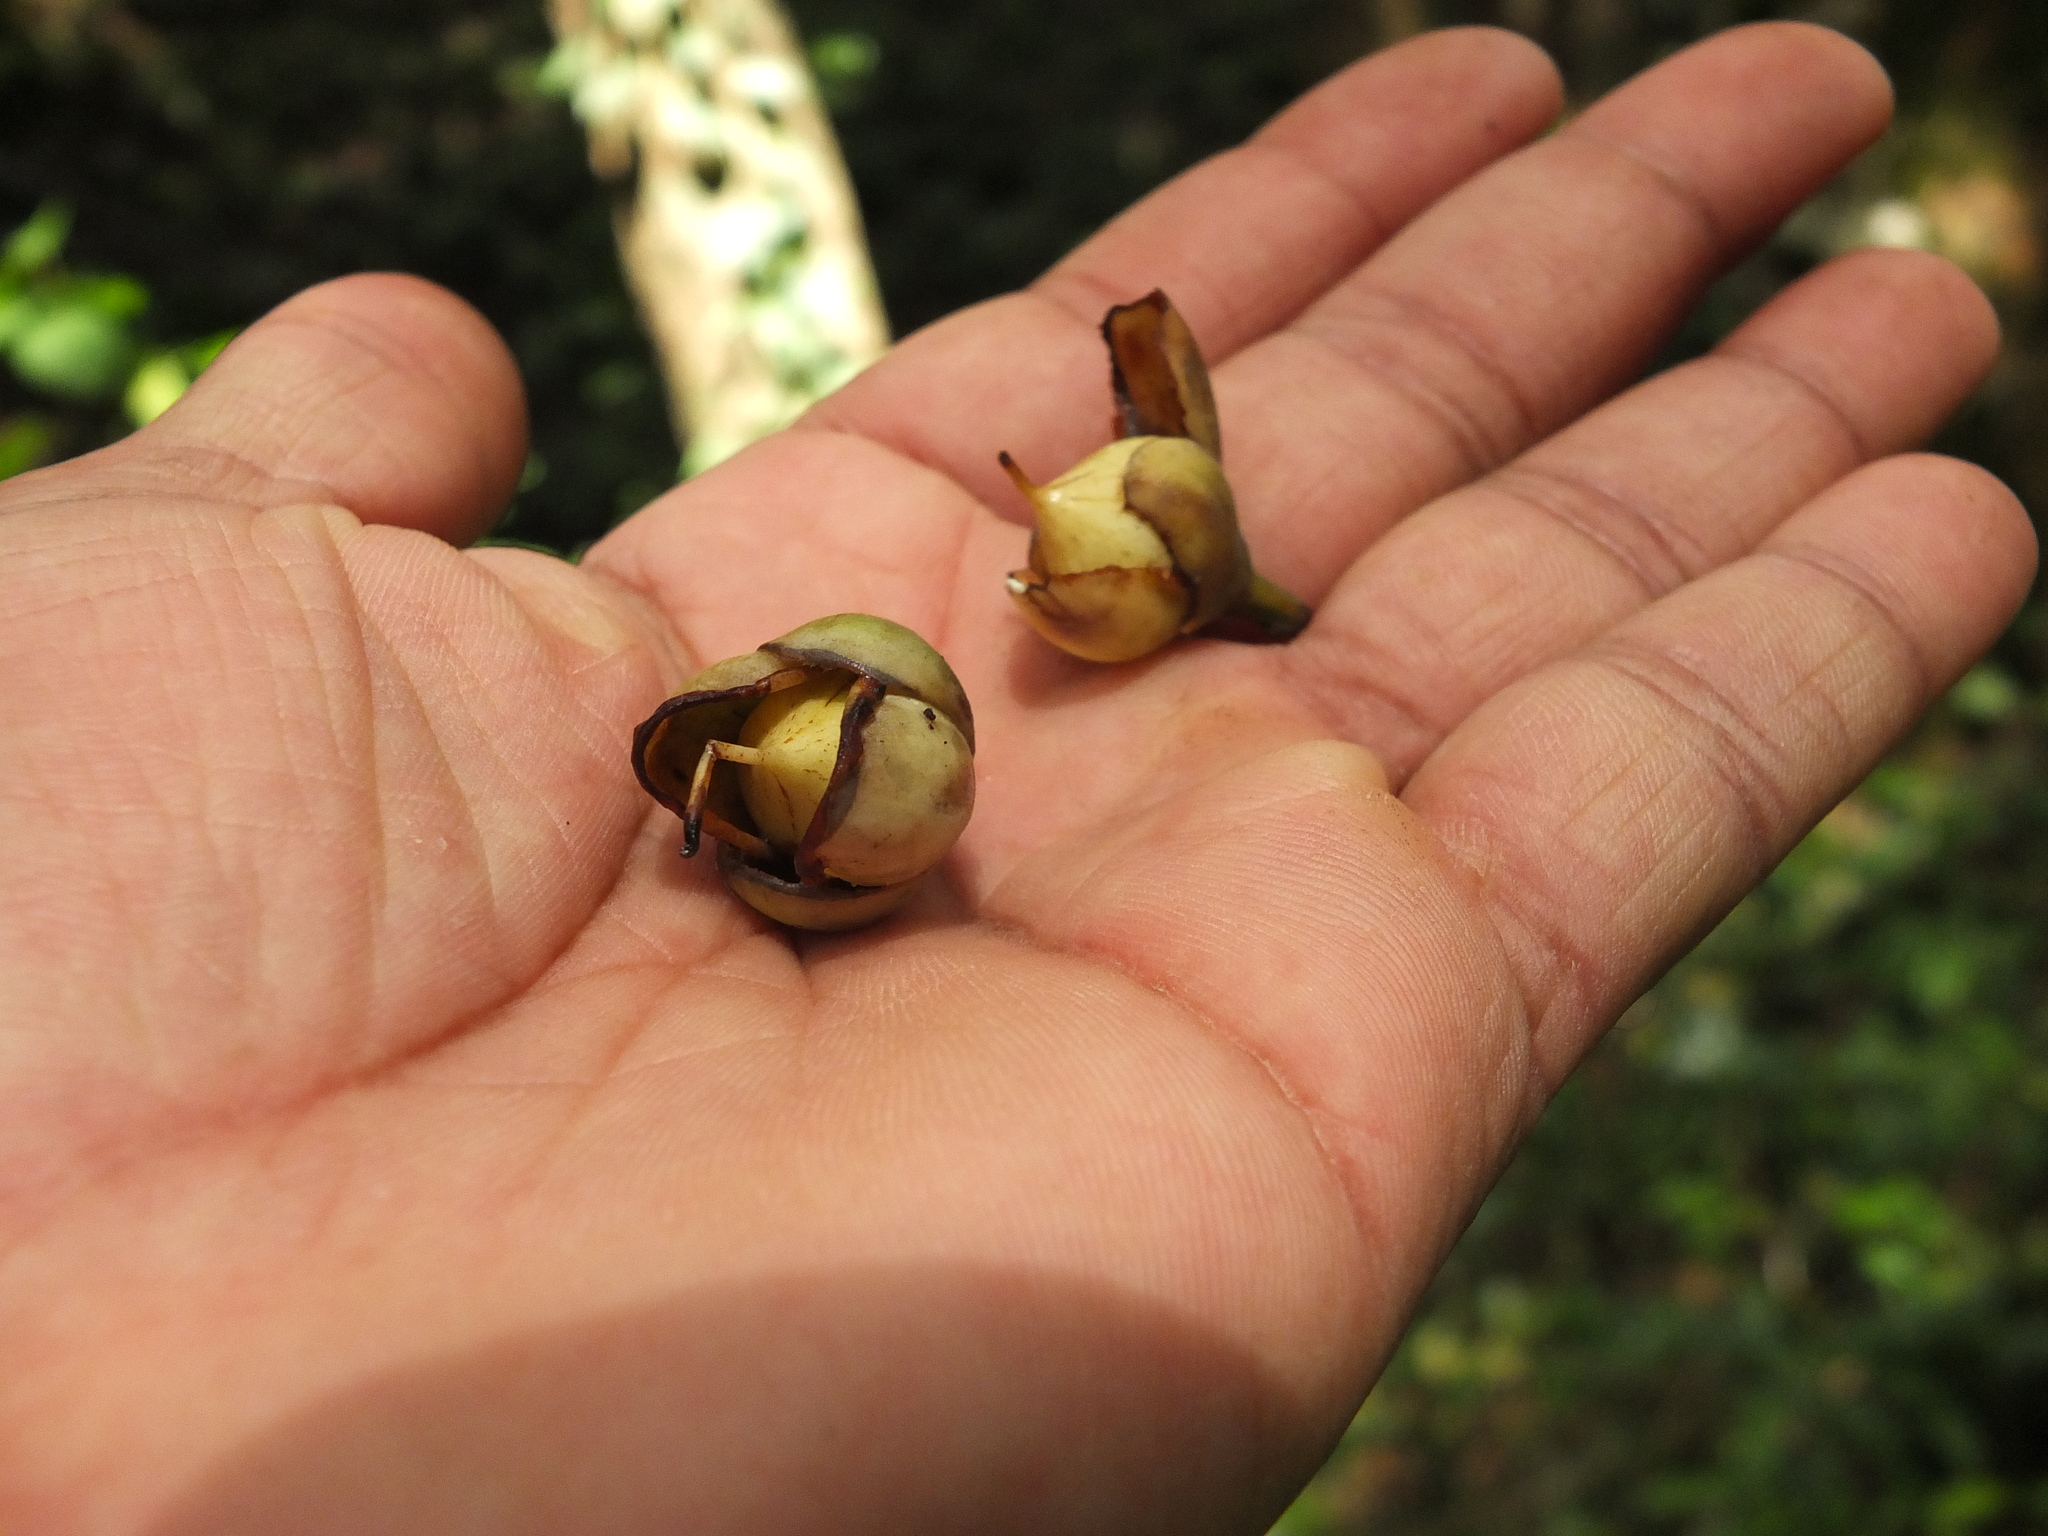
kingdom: Plantae
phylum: Tracheophyta
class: Magnoliopsida
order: Malpighiales
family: Calophyllaceae
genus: Mesua
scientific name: Mesua ferrea
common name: Mesua
